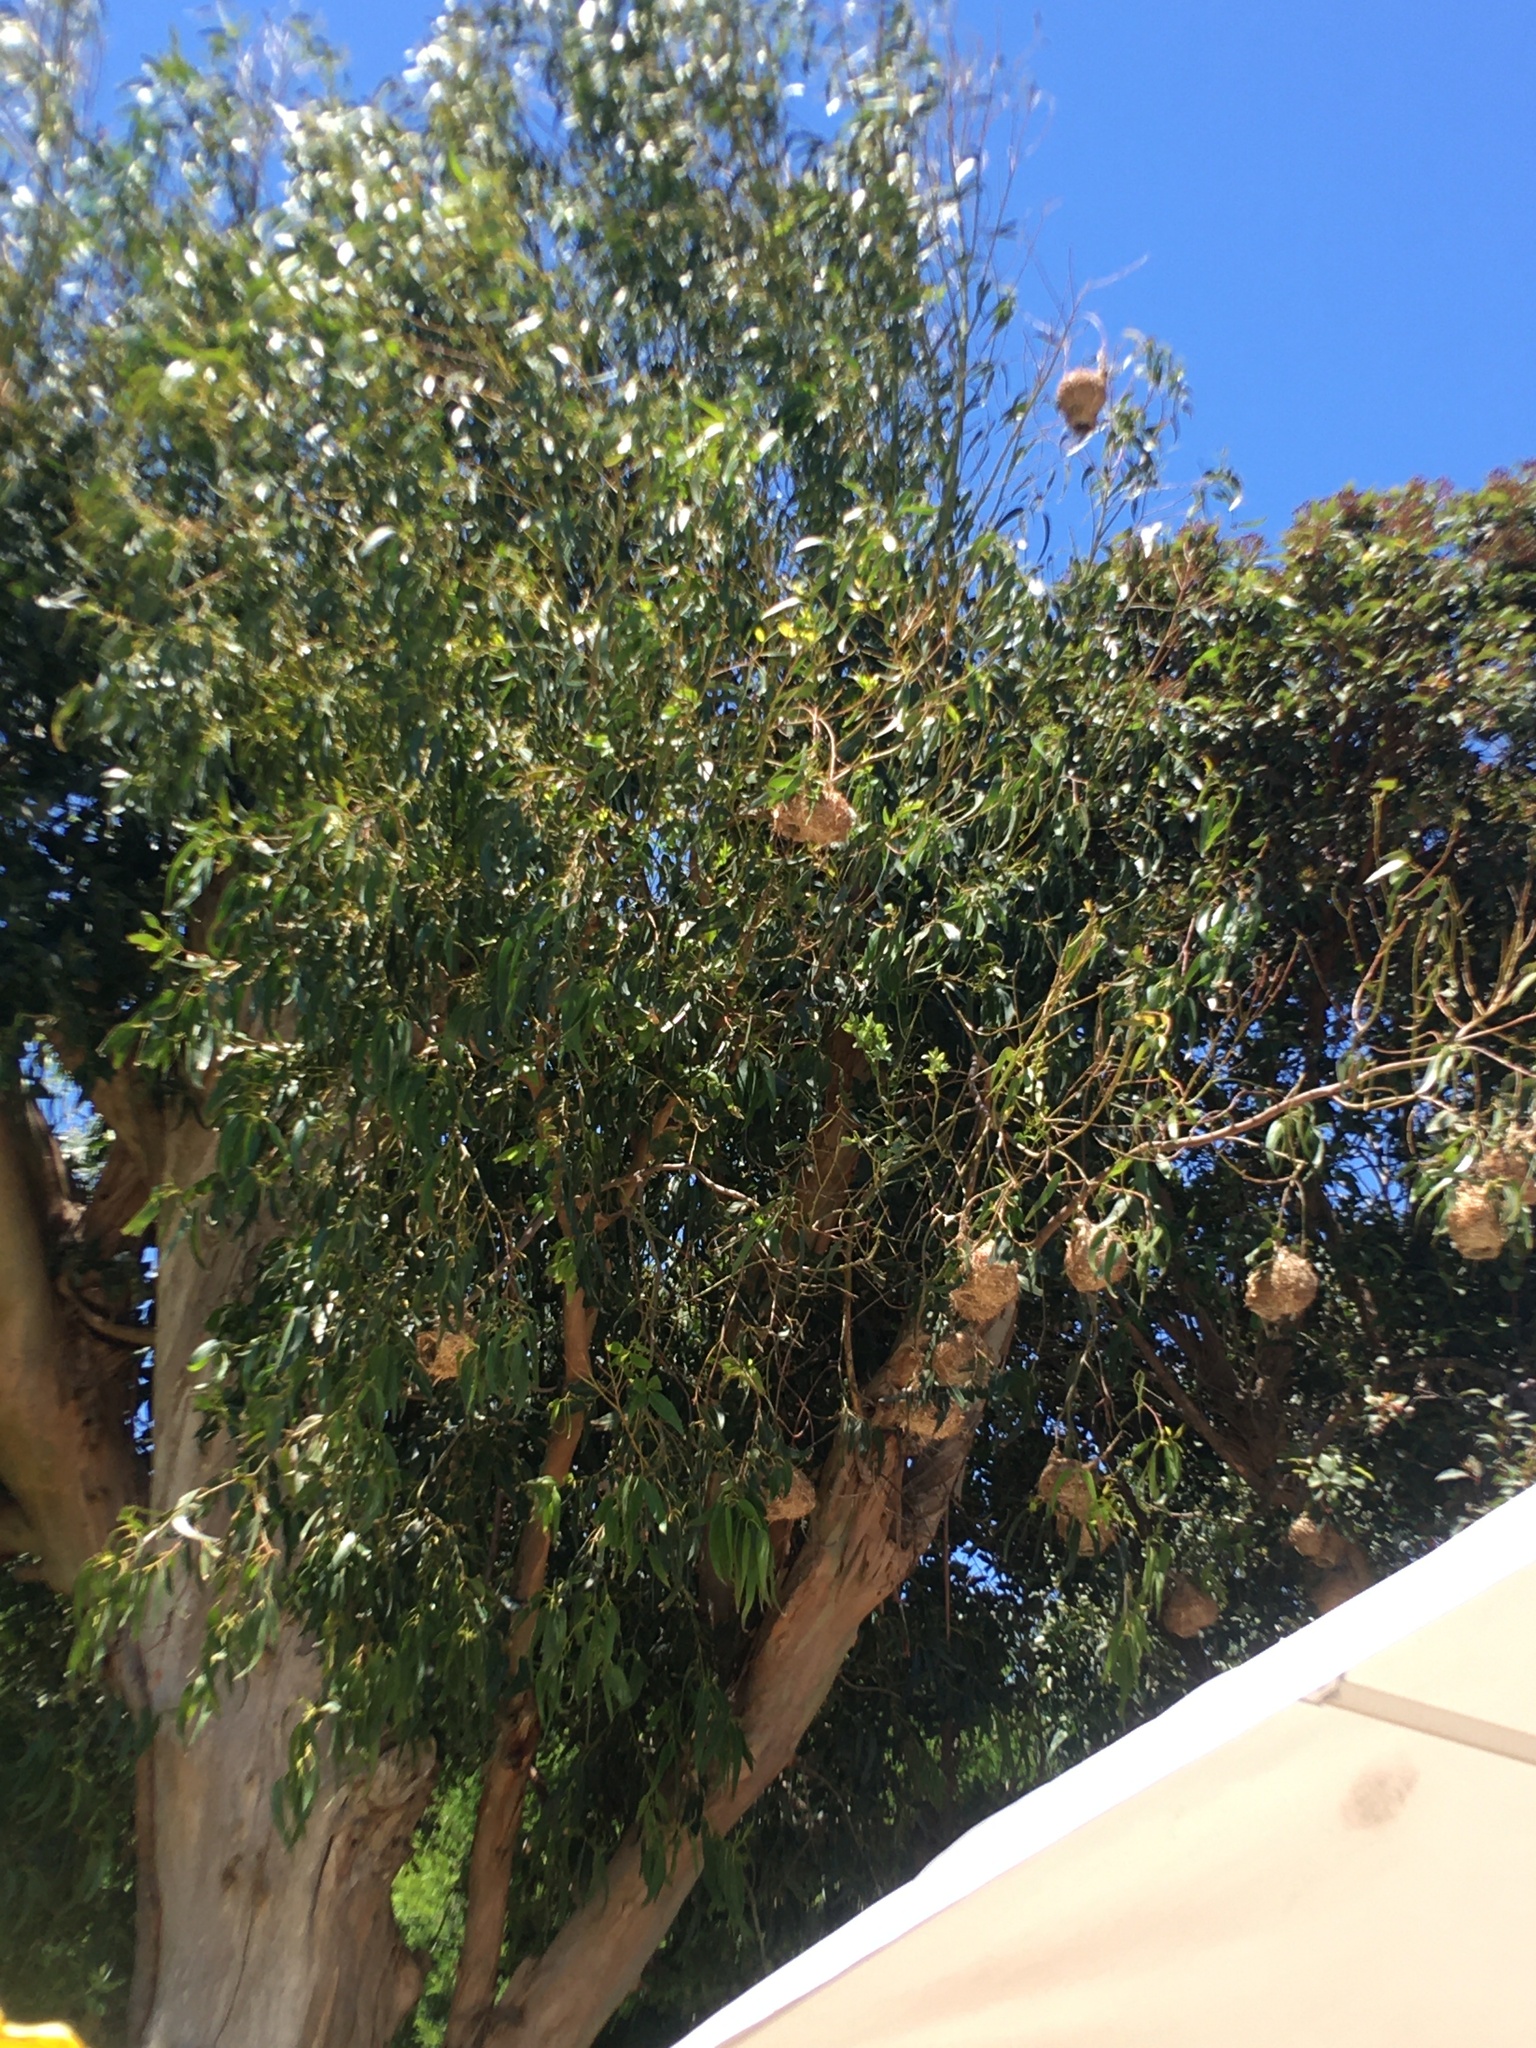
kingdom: Animalia
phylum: Chordata
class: Aves
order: Passeriformes
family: Ploceidae
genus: Ploceus
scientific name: Ploceus capensis
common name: Cape weaver
